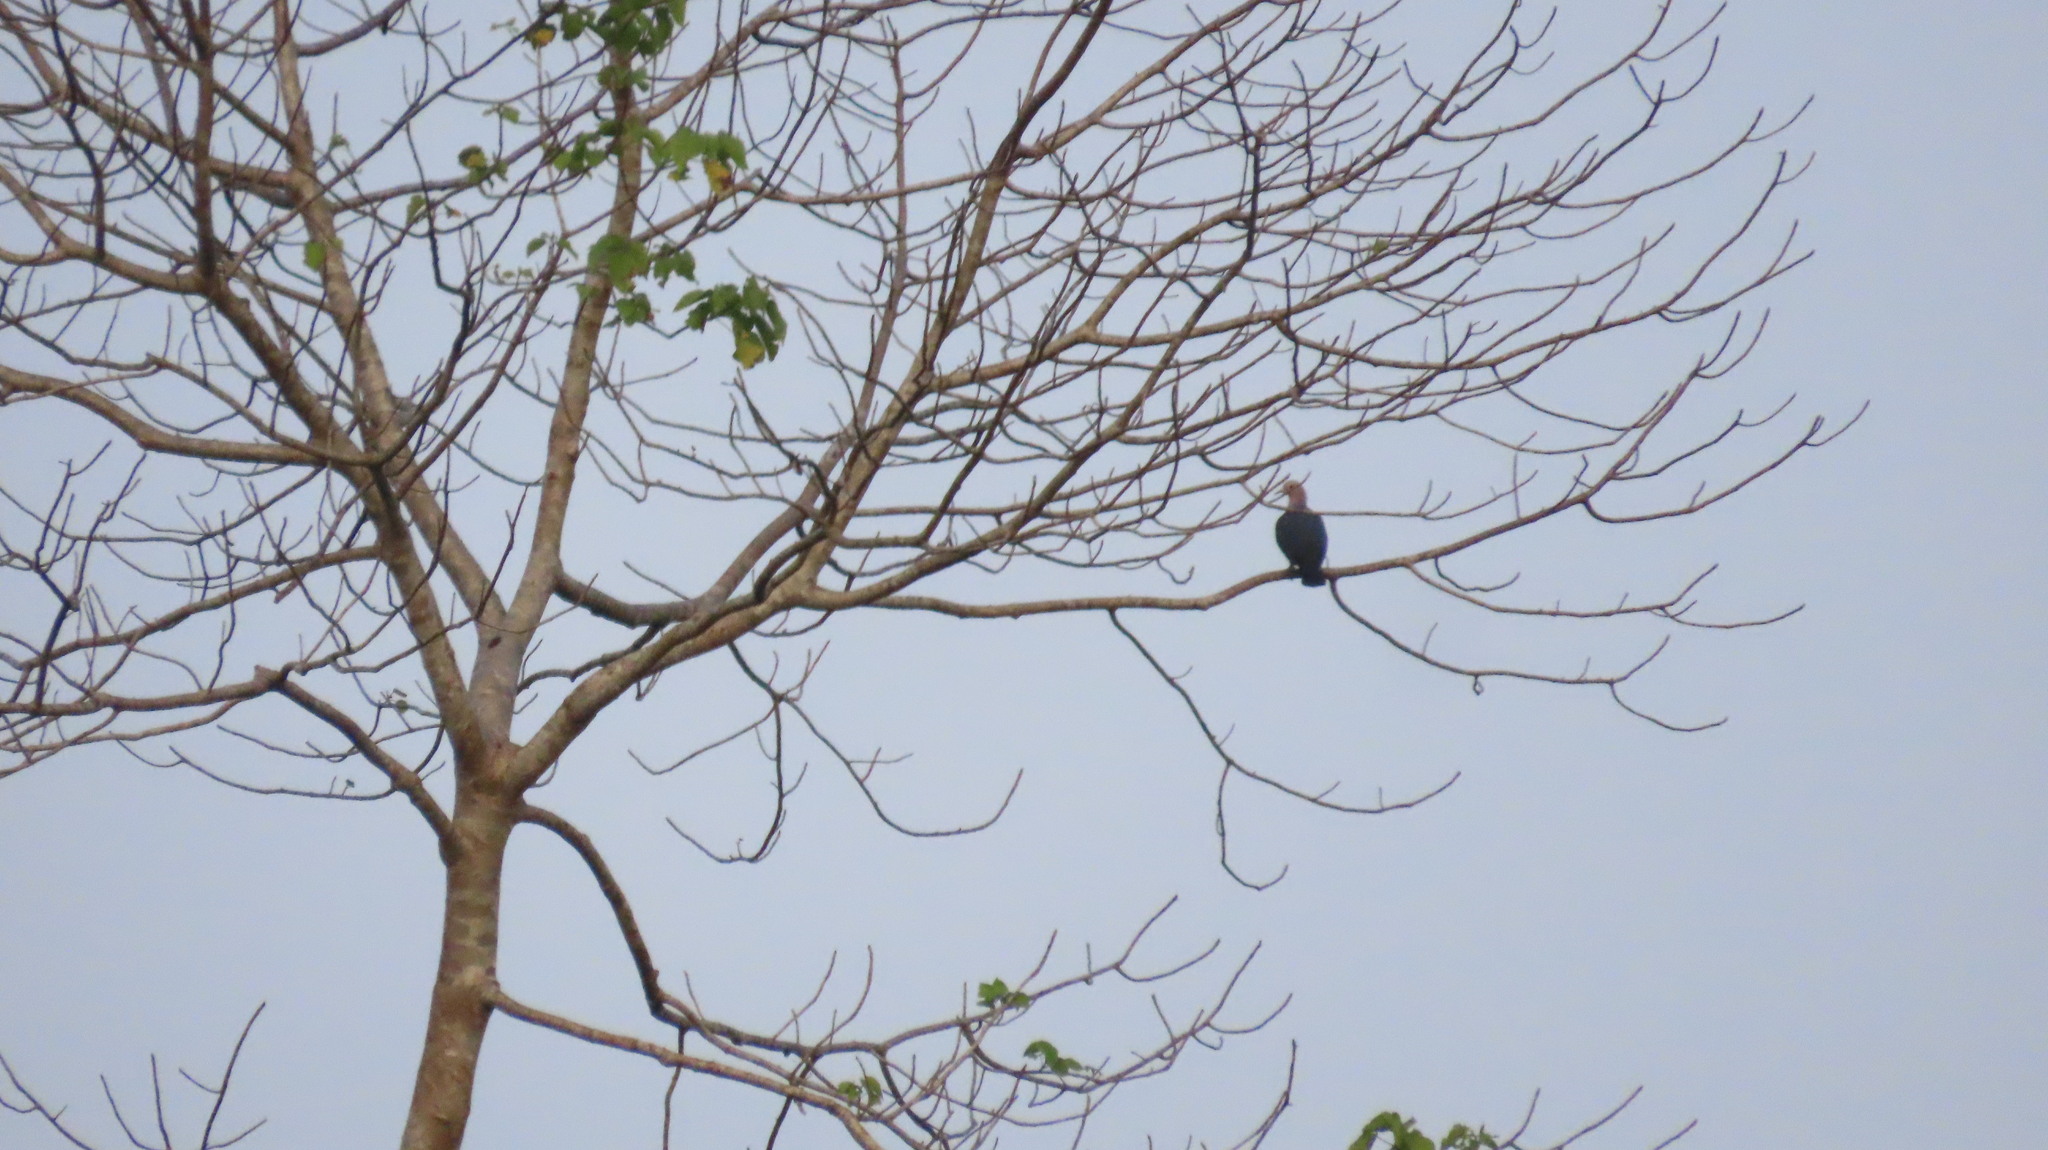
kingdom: Animalia
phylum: Chordata
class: Aves
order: Columbiformes
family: Columbidae
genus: Ducula
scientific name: Ducula aenea
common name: Green imperial pigeon
